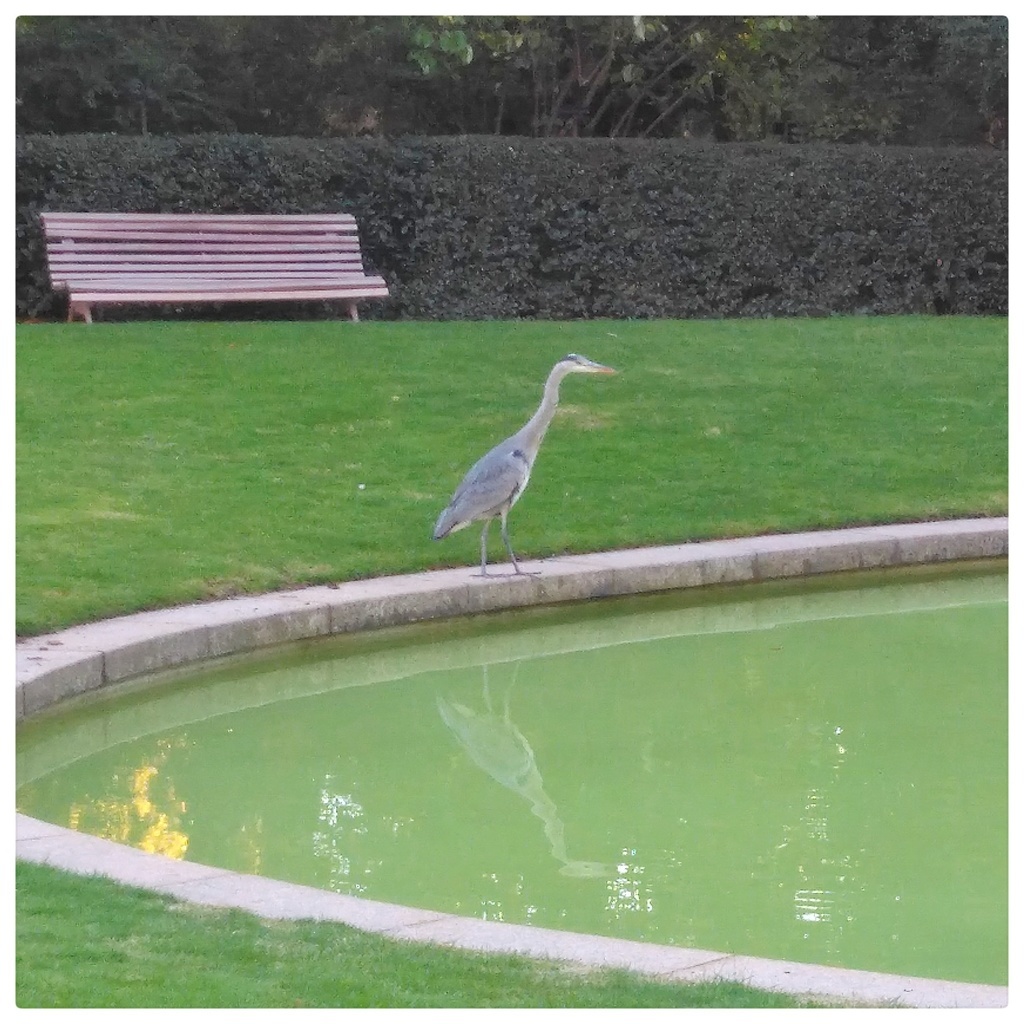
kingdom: Animalia
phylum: Chordata
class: Aves
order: Pelecaniformes
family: Ardeidae
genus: Ardea
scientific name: Ardea cinerea
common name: Grey heron
